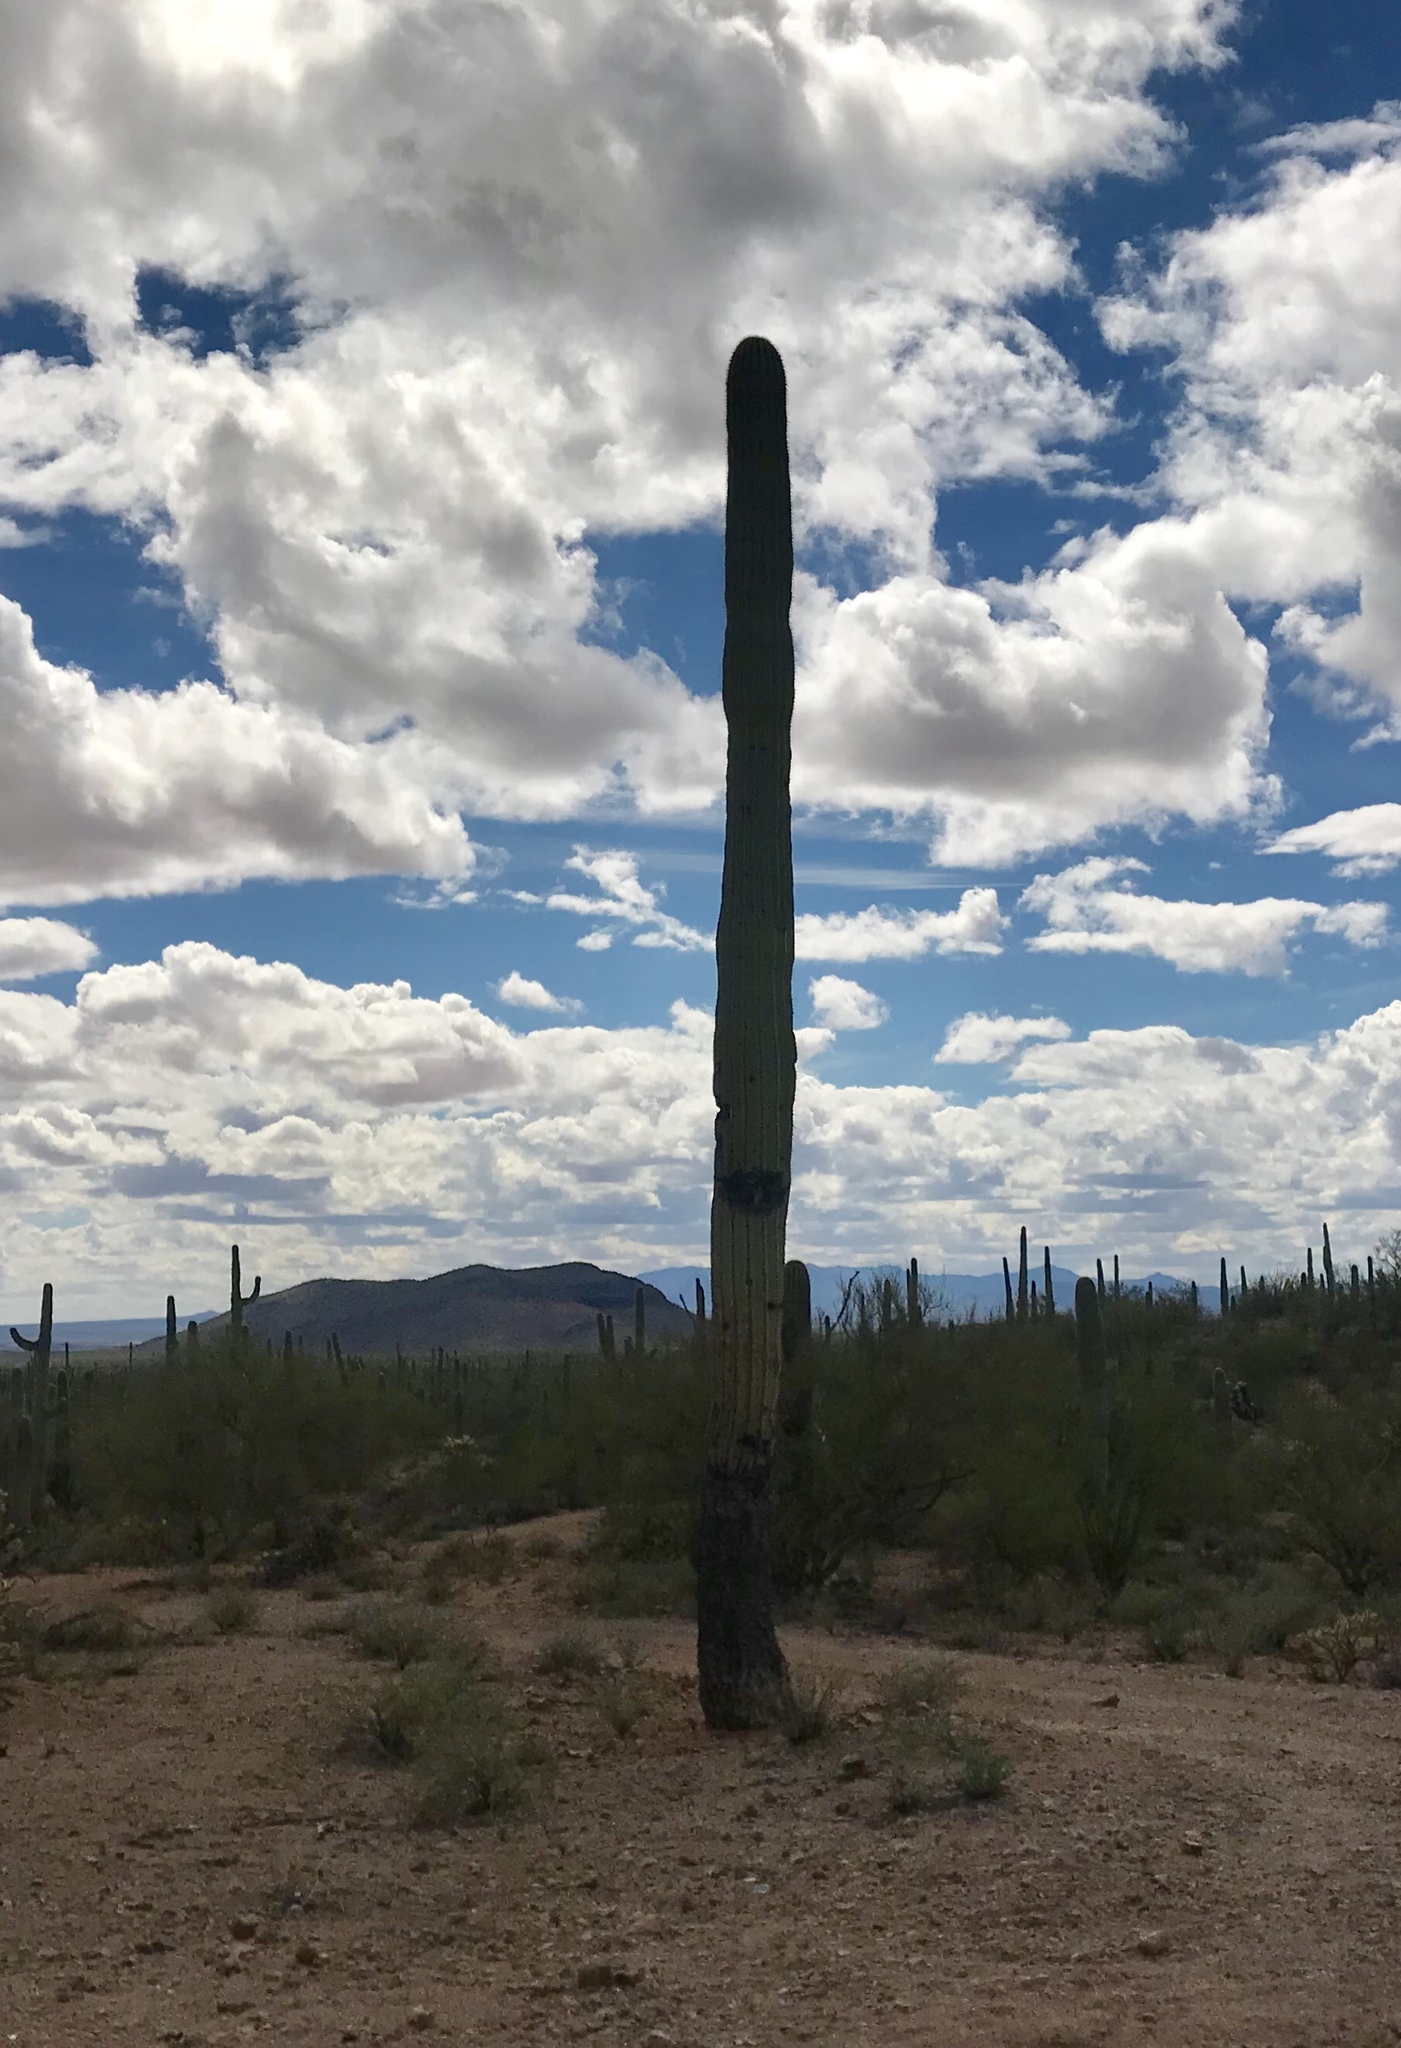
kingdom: Plantae
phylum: Tracheophyta
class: Magnoliopsida
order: Caryophyllales
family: Cactaceae
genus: Carnegiea
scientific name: Carnegiea gigantea
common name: Saguaro
